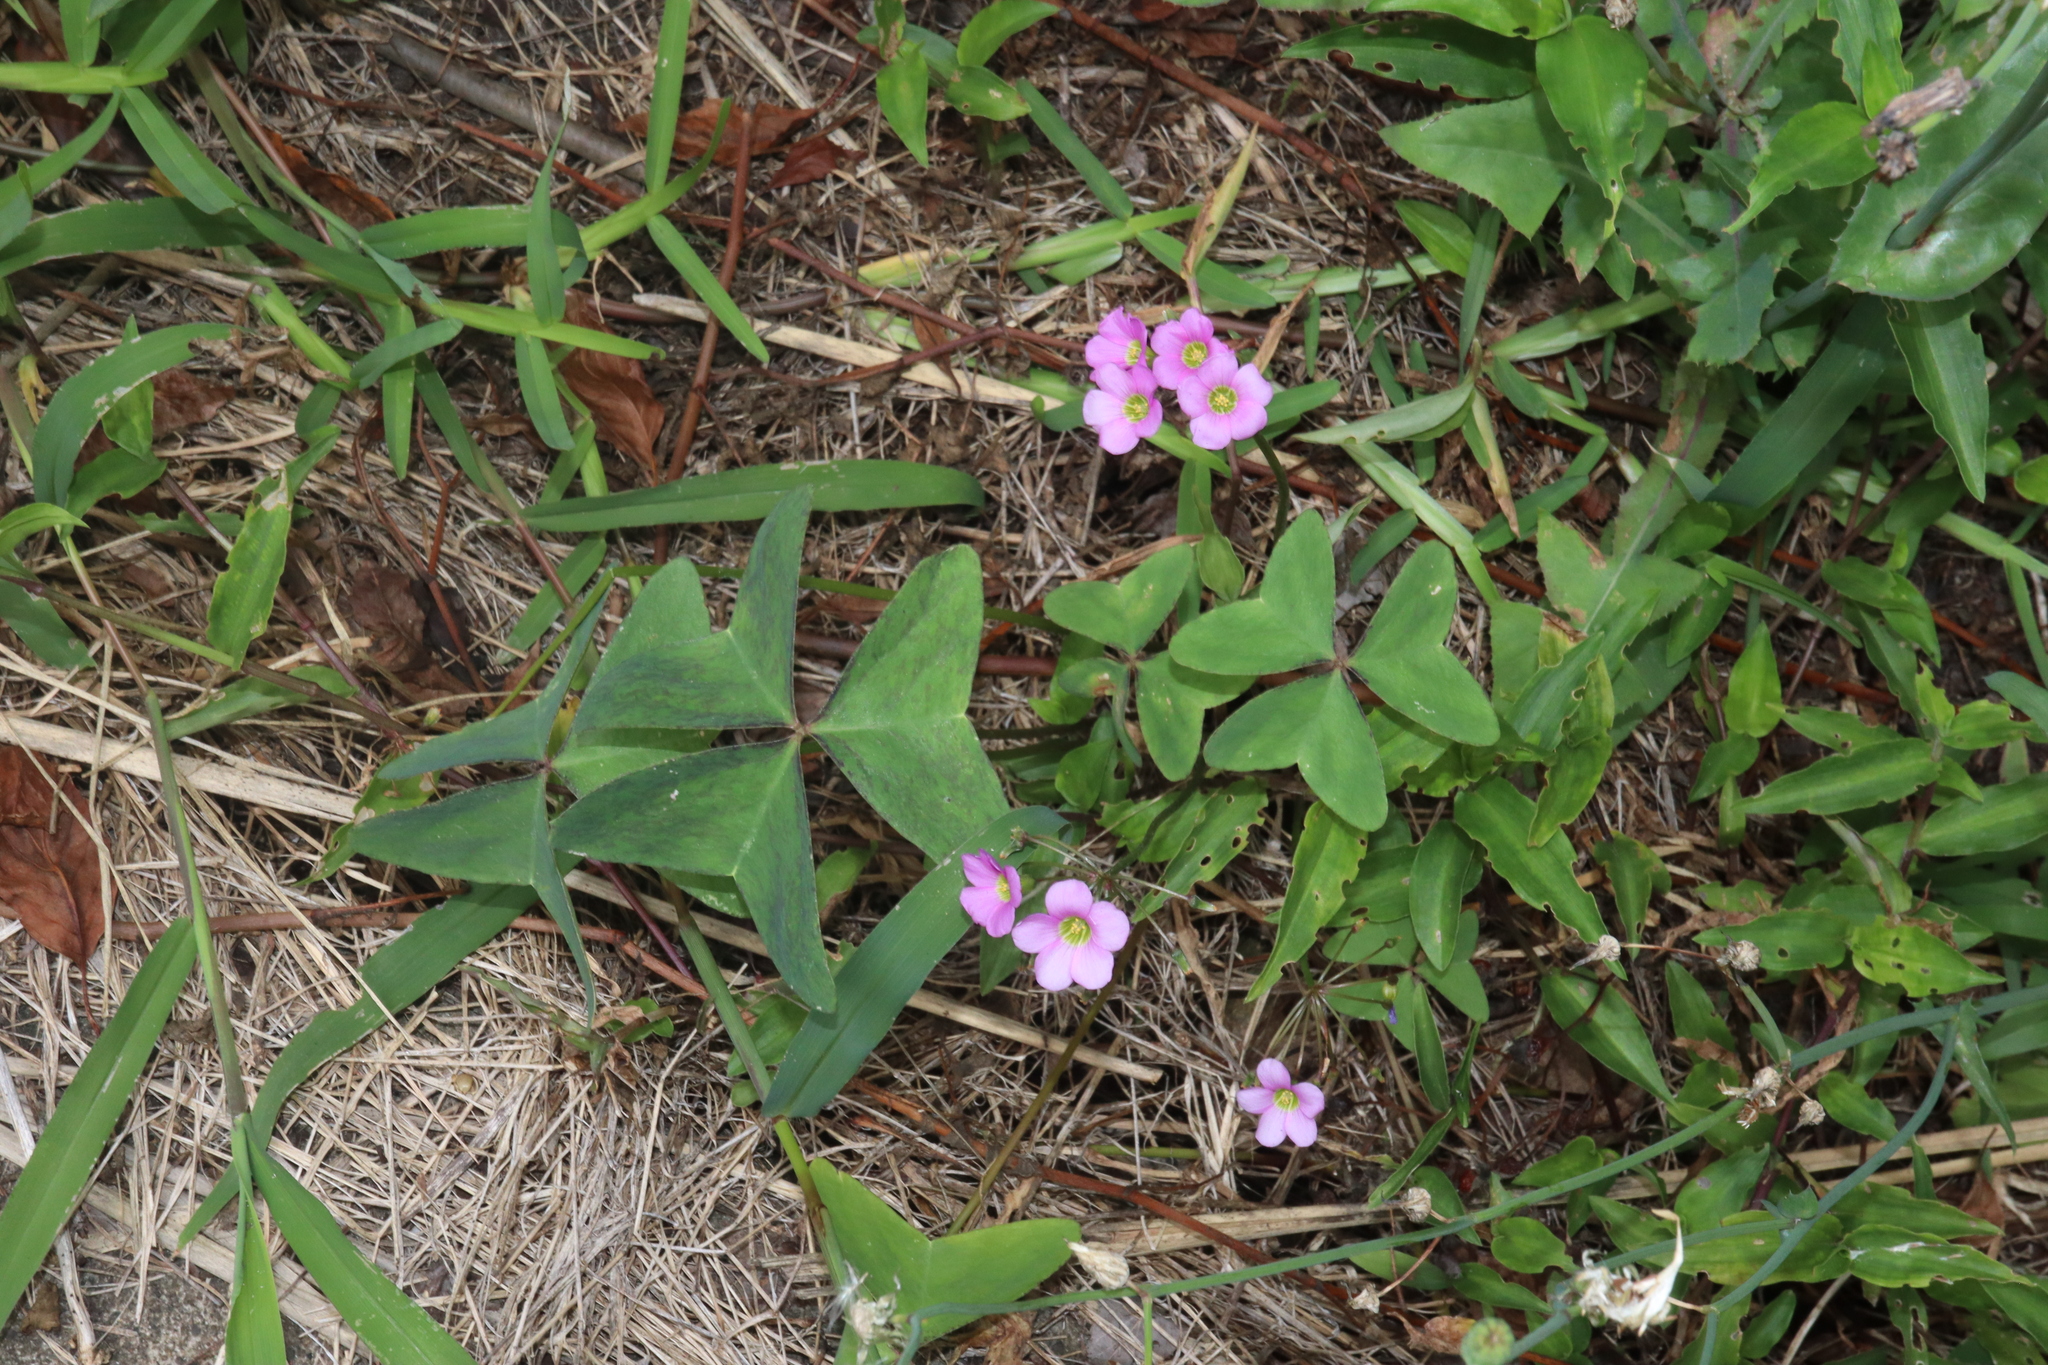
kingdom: Plantae
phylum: Tracheophyta
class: Magnoliopsida
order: Oxalidales
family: Oxalidaceae
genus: Oxalis
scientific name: Oxalis latifolia
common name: Garden pink-sorrel
